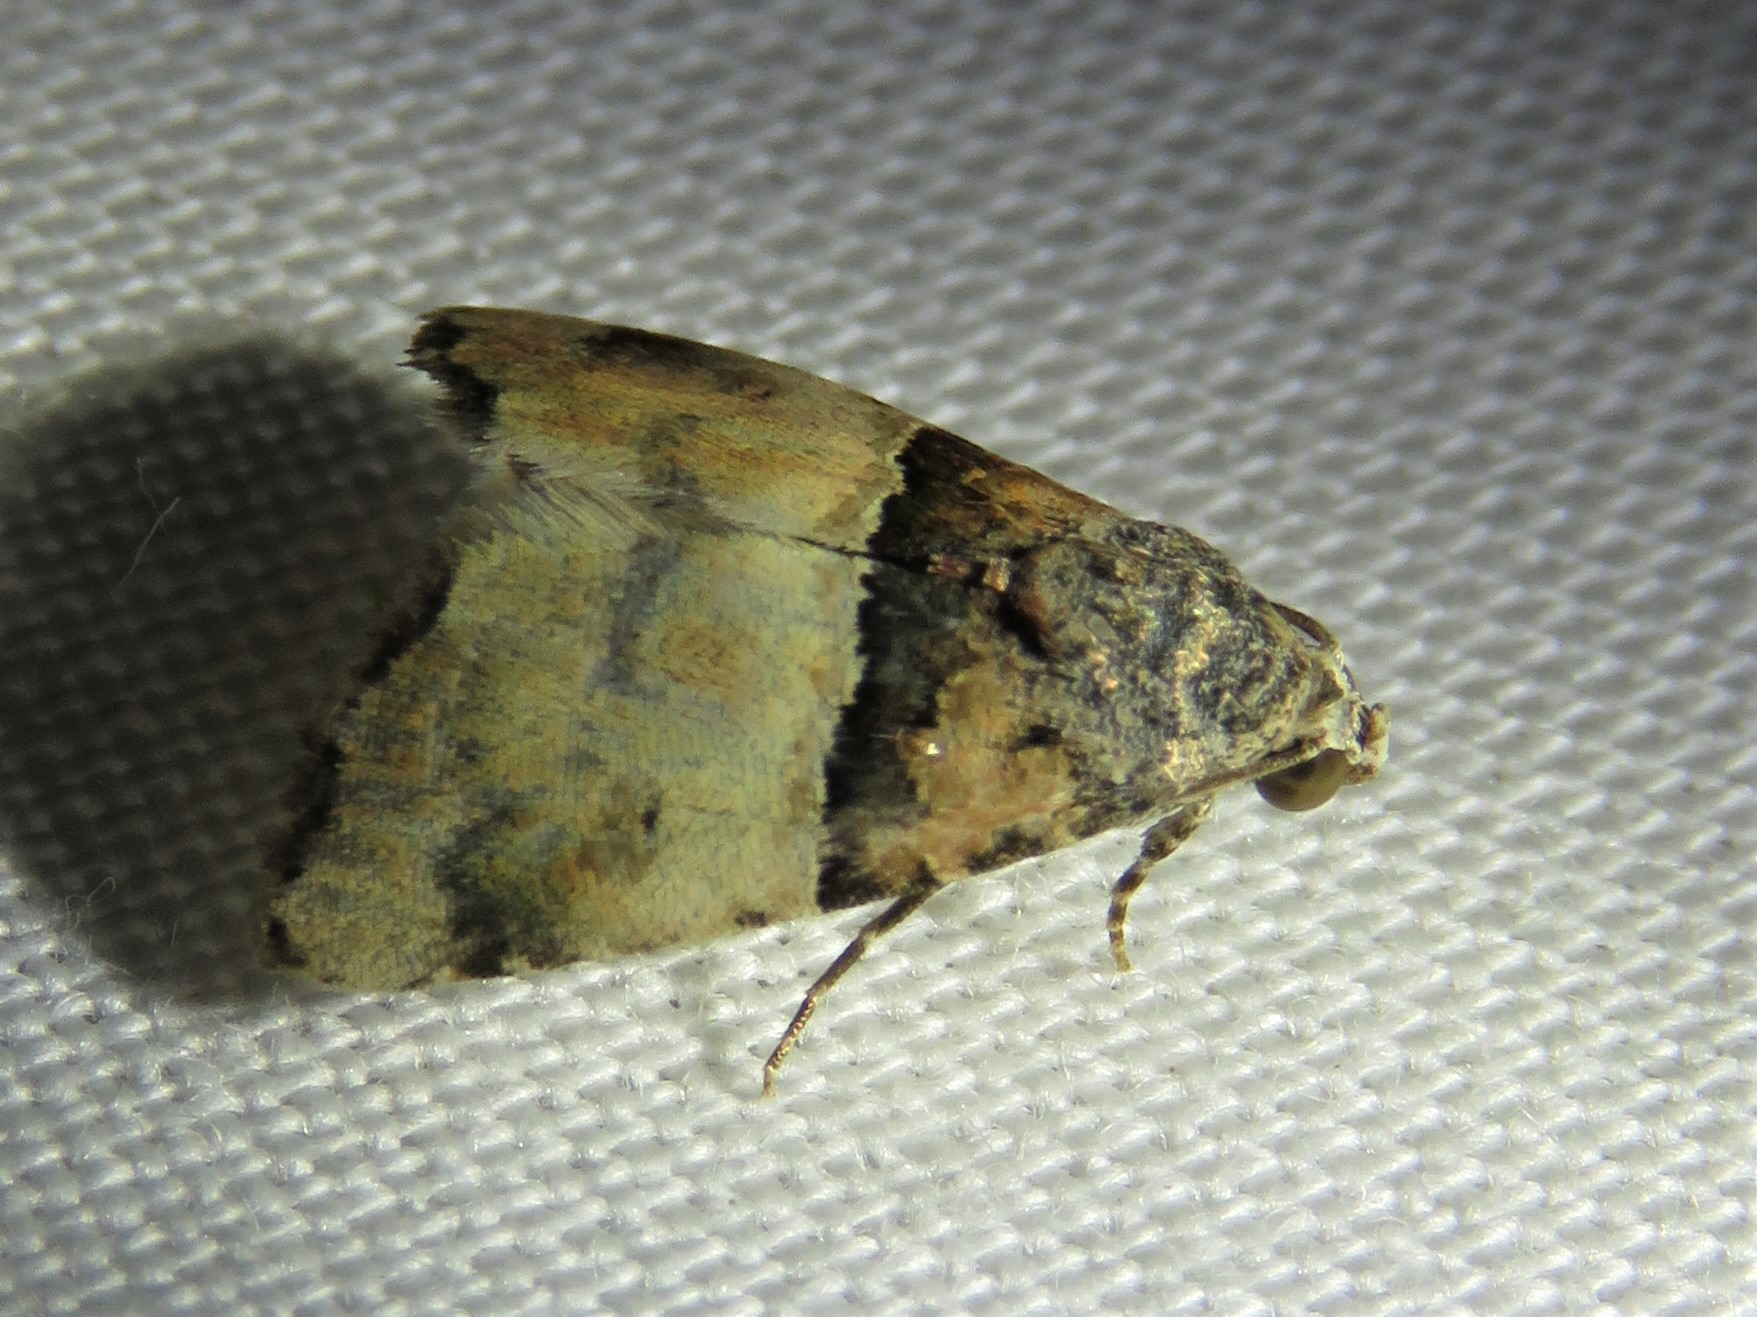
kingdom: Animalia
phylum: Arthropoda
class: Insecta
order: Lepidoptera
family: Noctuidae
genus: Cobubatha
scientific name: Cobubatha dividua
